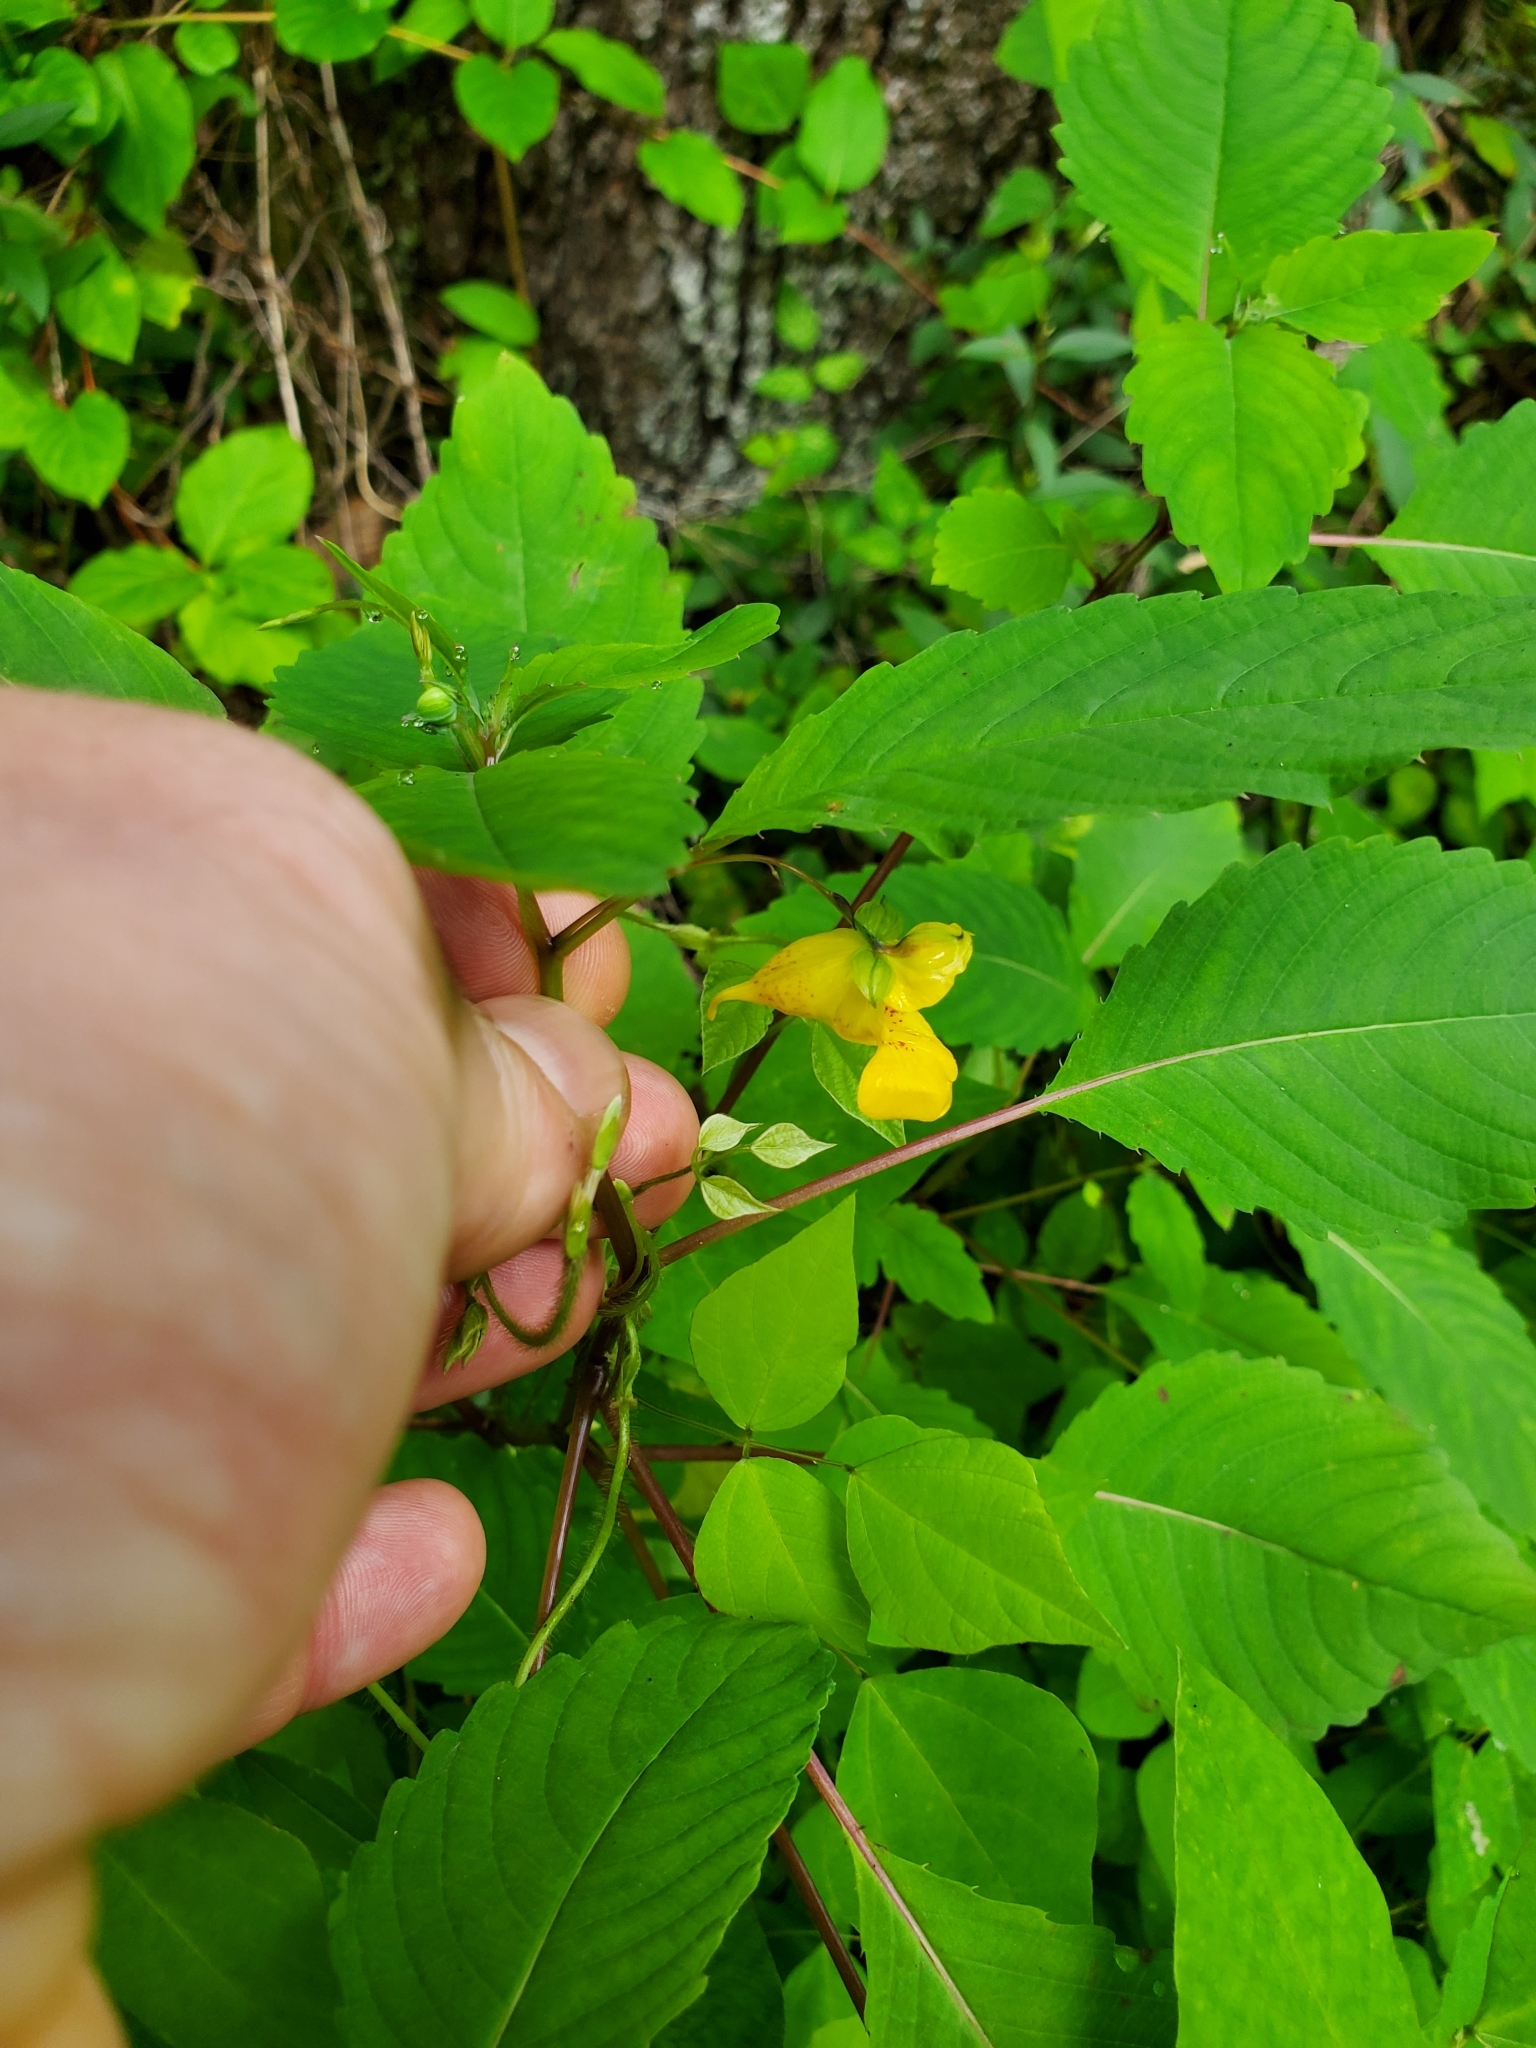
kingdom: Plantae
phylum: Tracheophyta
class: Magnoliopsida
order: Ericales
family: Balsaminaceae
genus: Impatiens
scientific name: Impatiens pallida
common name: Pale snapweed
